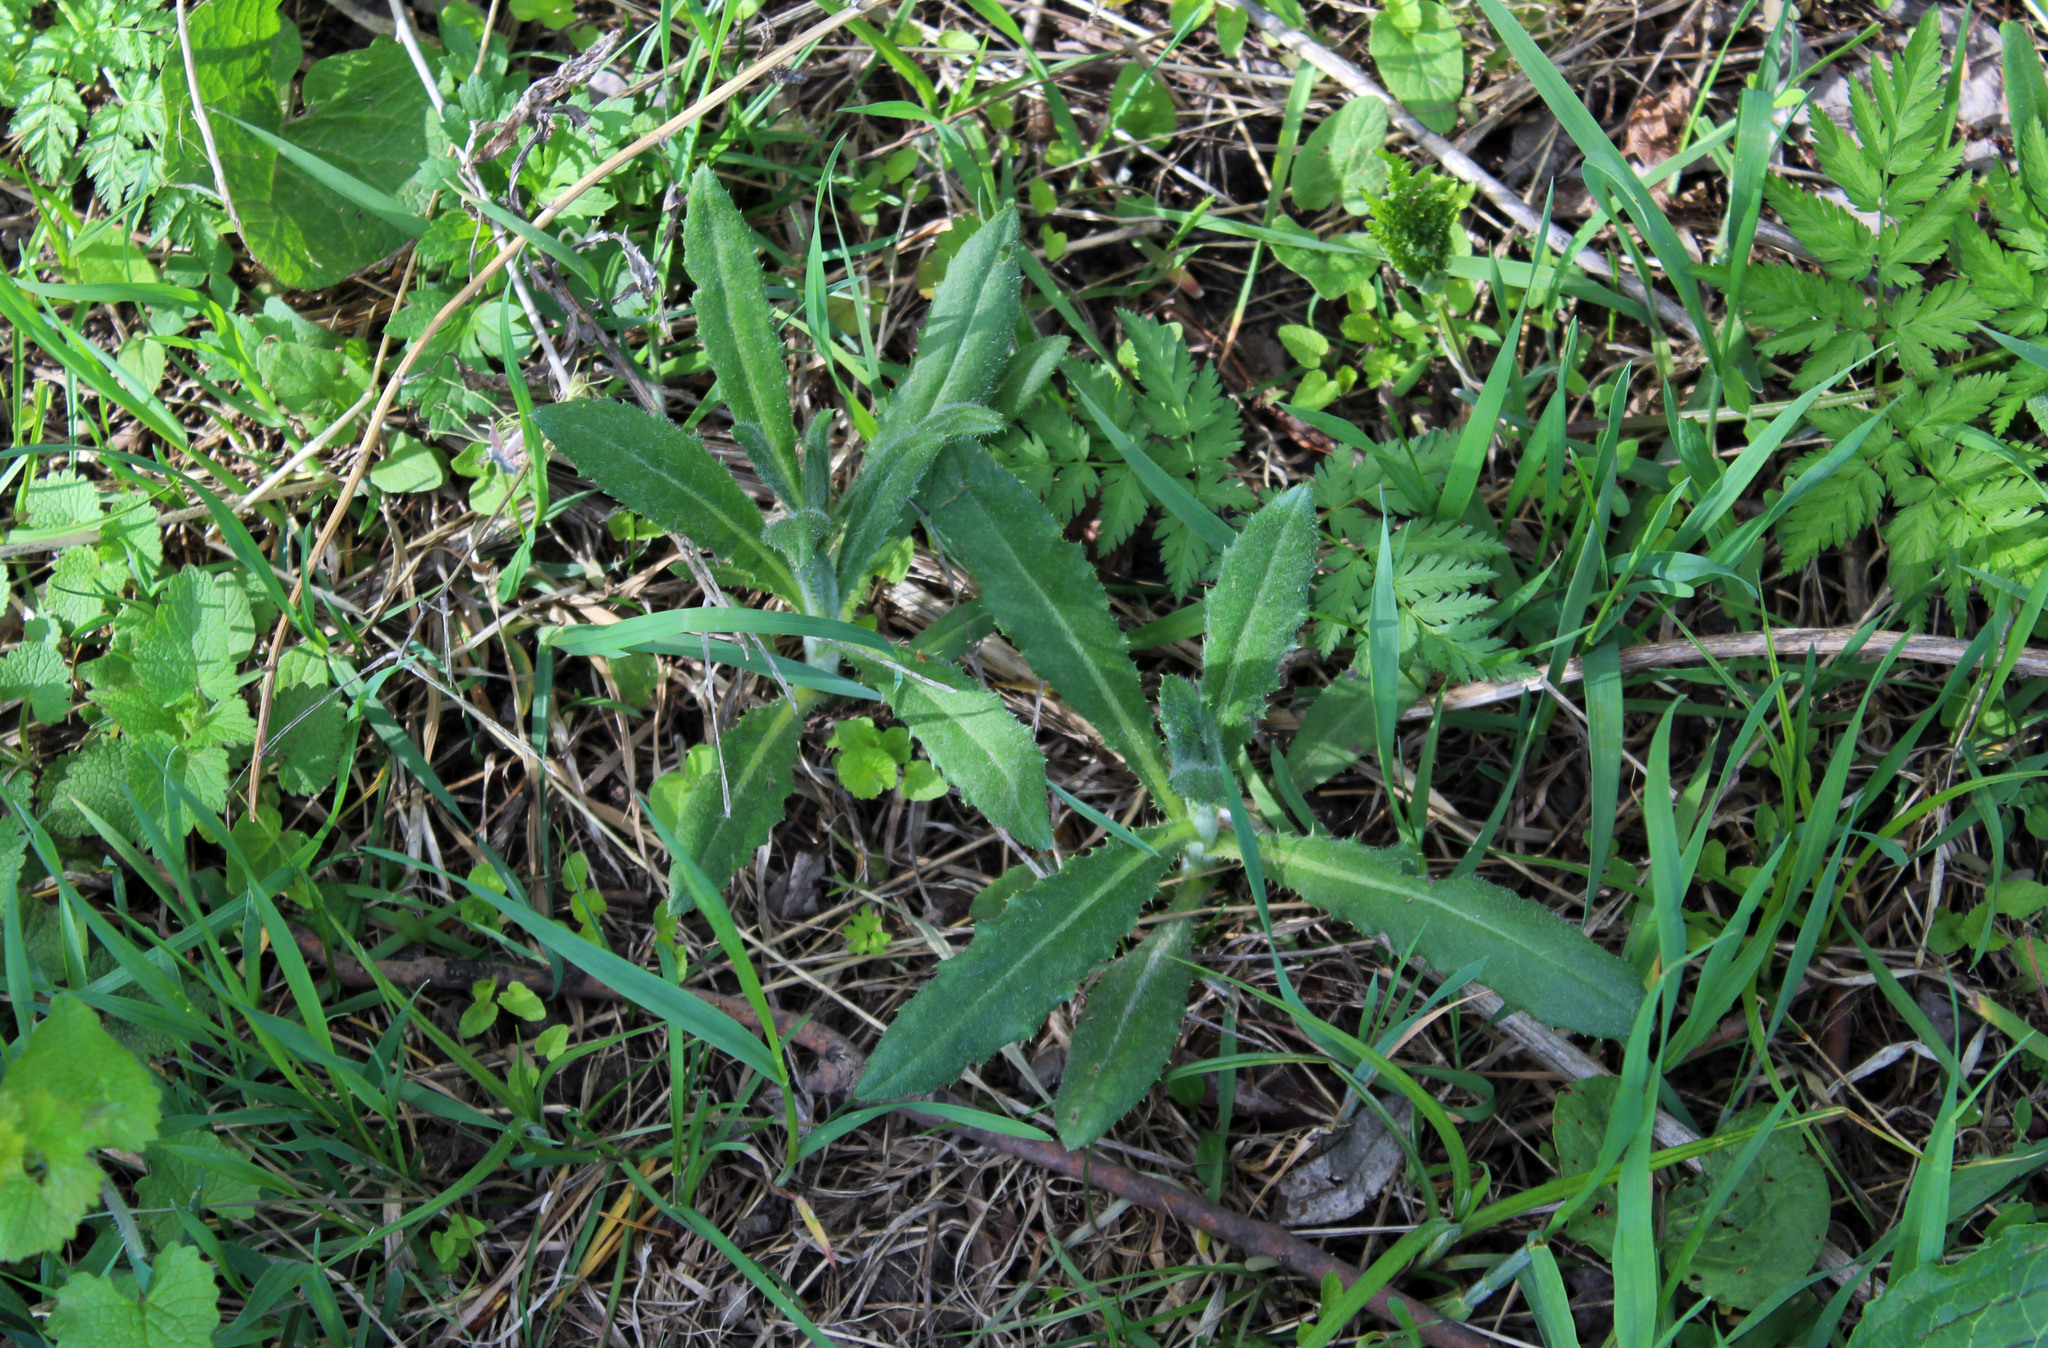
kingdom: Plantae
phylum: Tracheophyta
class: Magnoliopsida
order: Asterales
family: Asteraceae
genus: Cirsium
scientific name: Cirsium arvense
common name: Creeping thistle
